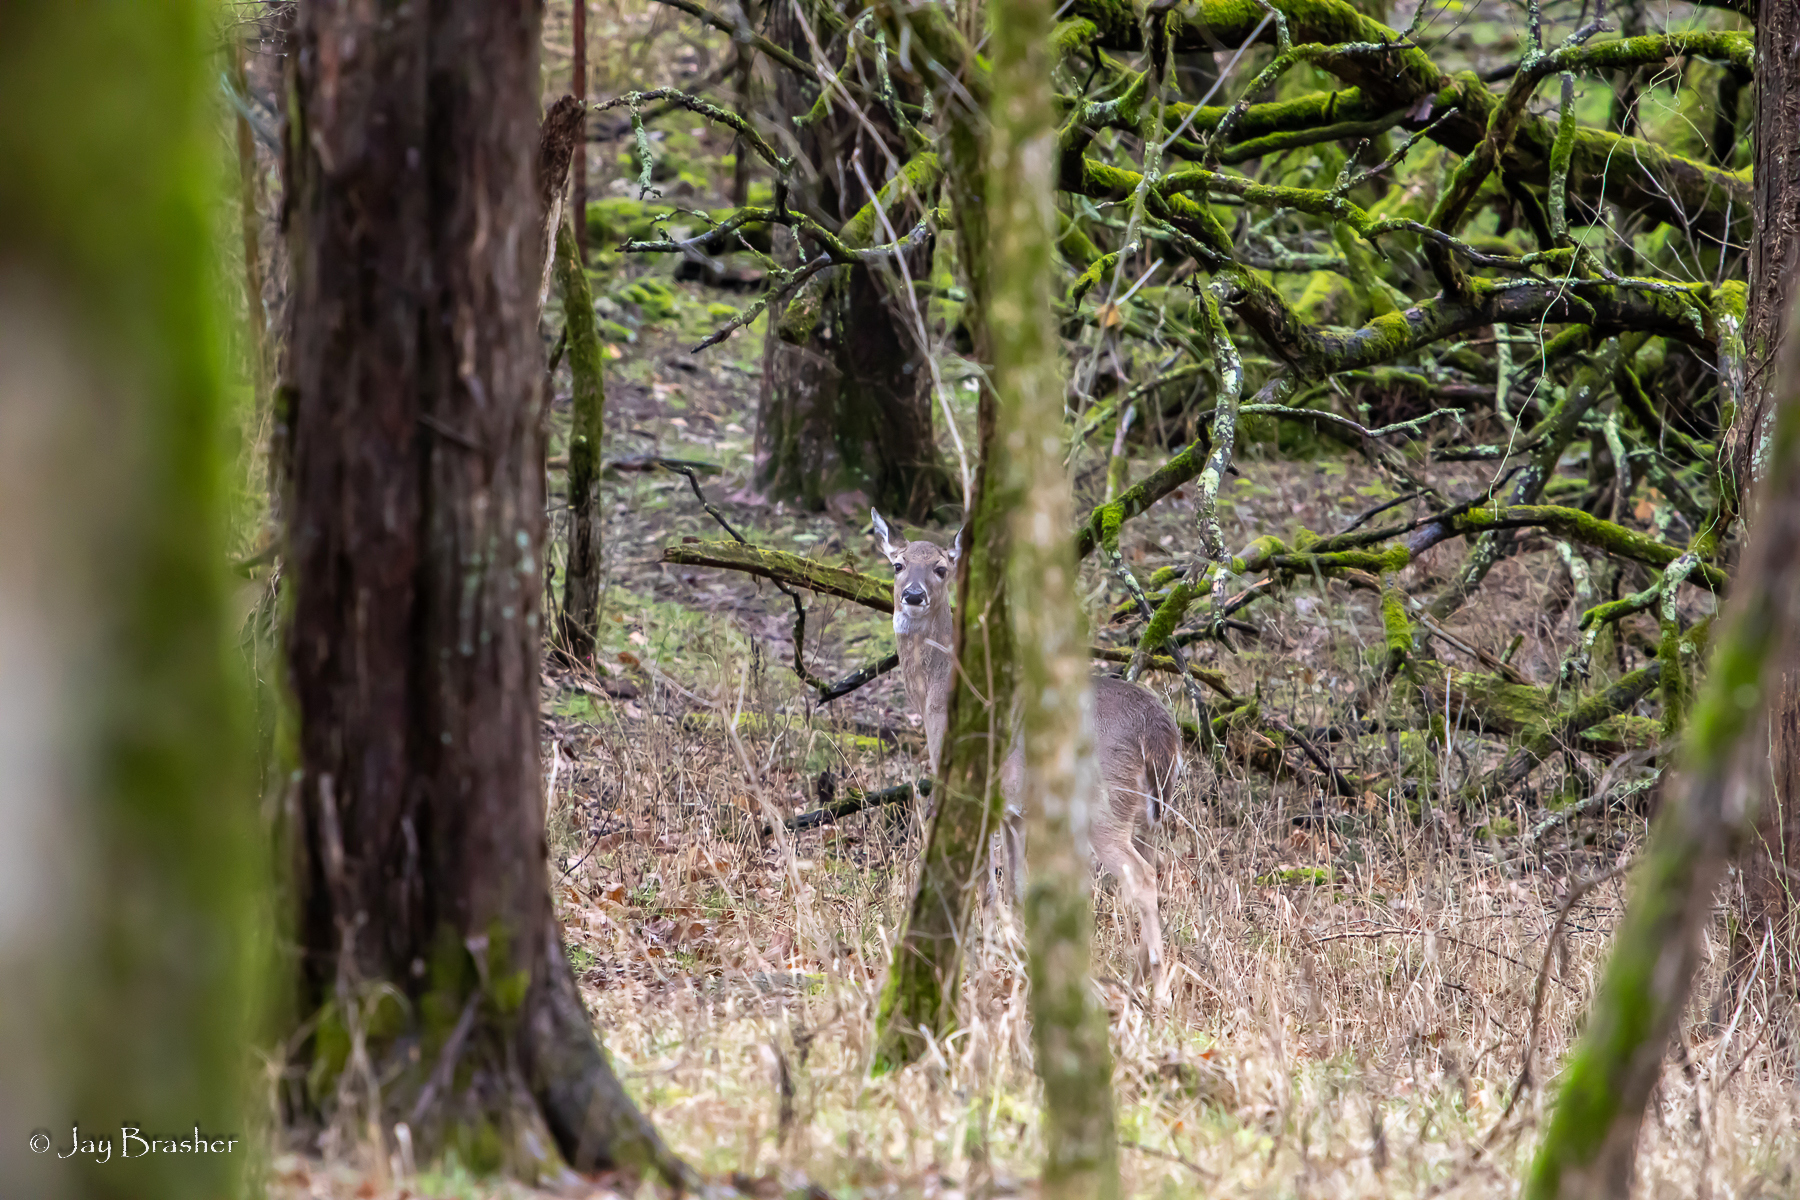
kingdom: Animalia
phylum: Chordata
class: Mammalia
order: Artiodactyla
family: Cervidae
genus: Odocoileus
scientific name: Odocoileus virginianus
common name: White-tailed deer
